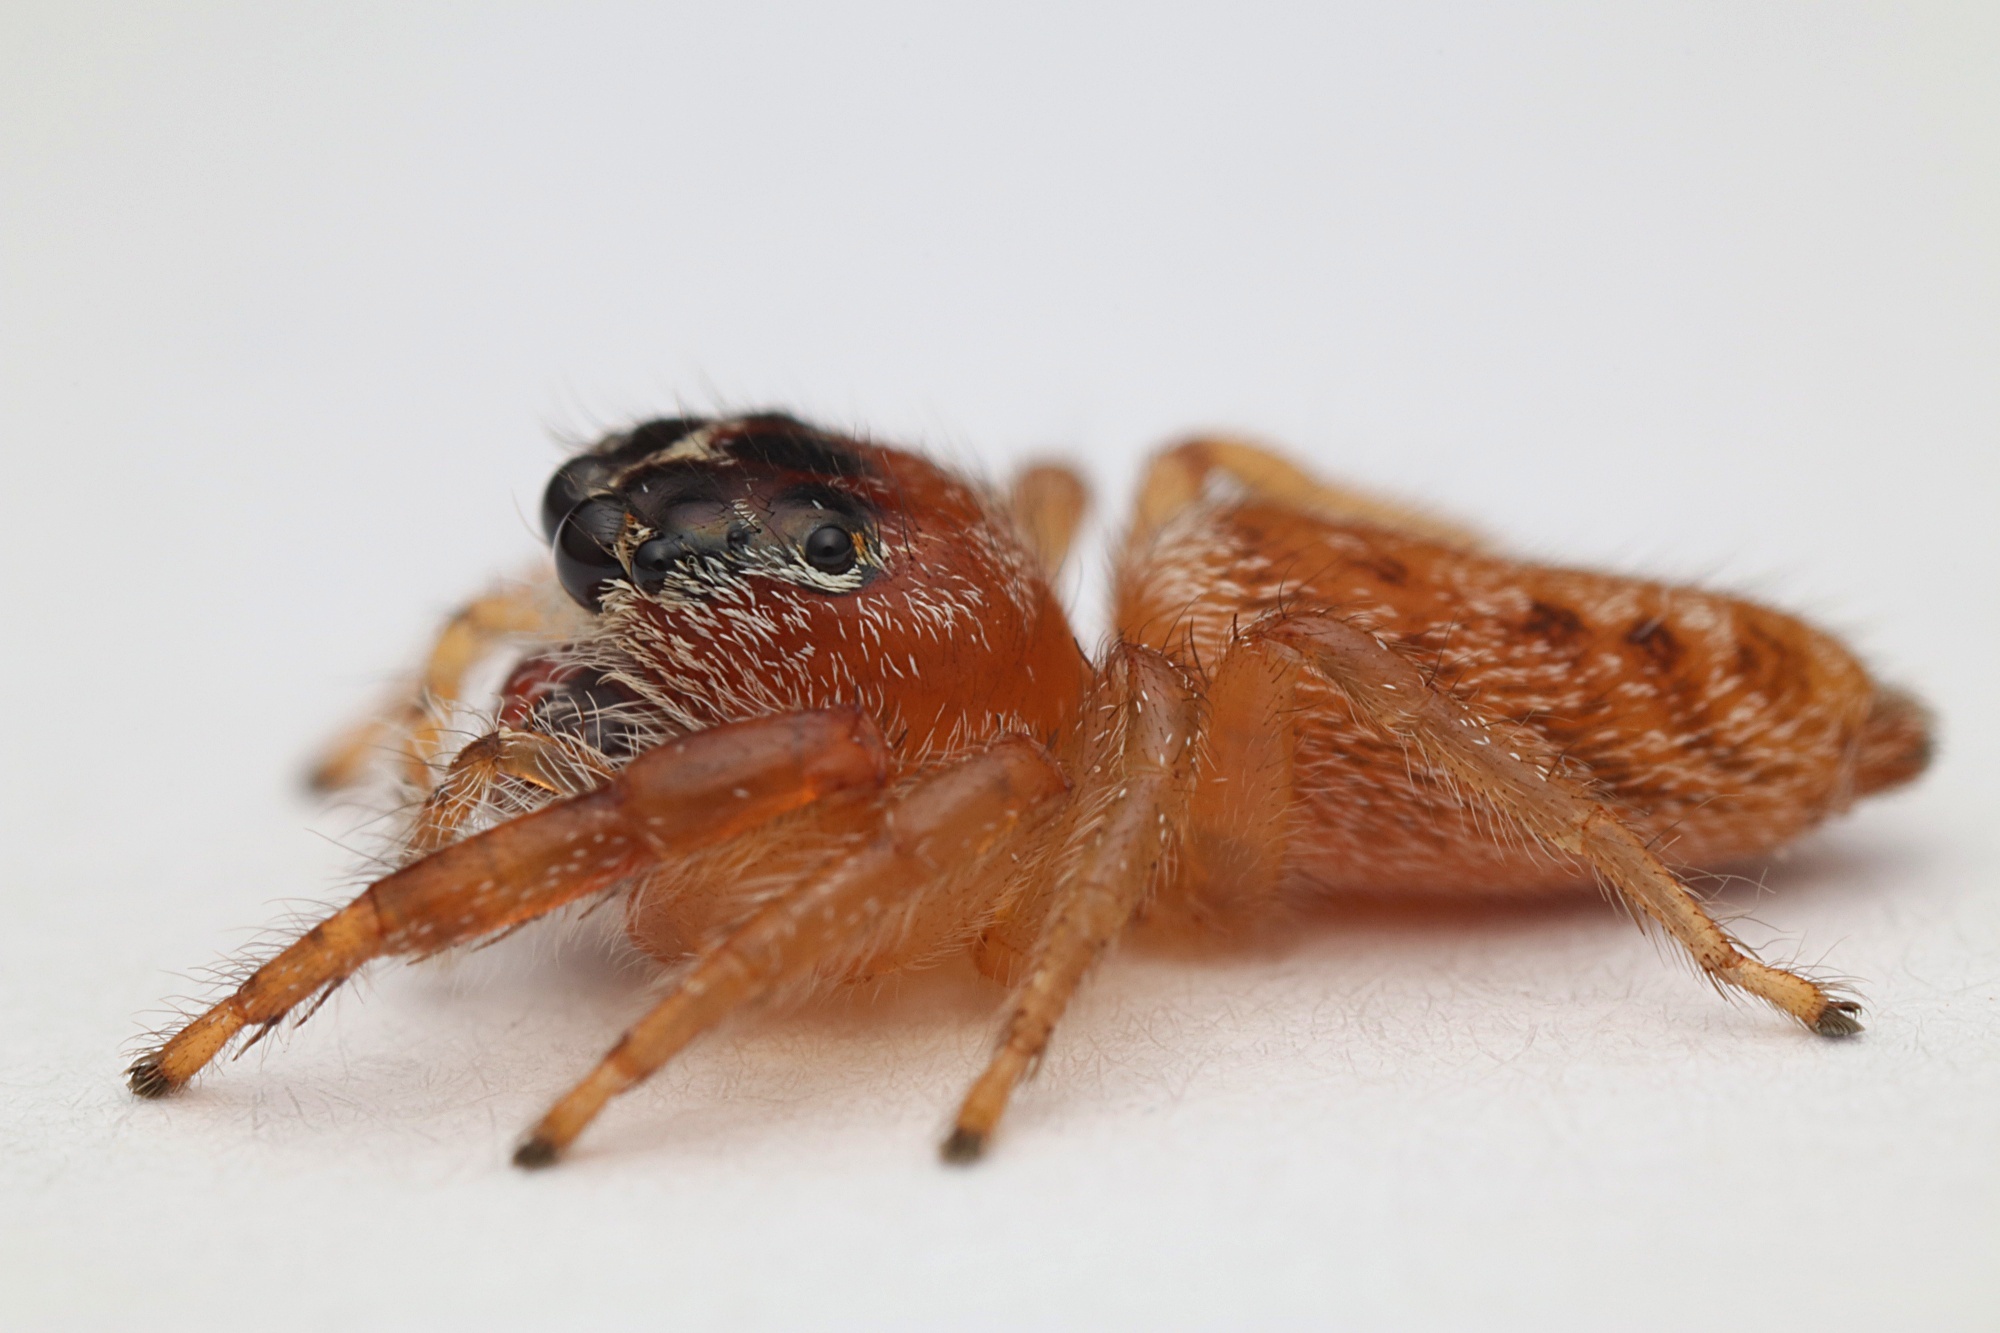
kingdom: Animalia
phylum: Arthropoda
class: Arachnida
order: Araneae
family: Salticidae
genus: Opisthoncus
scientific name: Opisthoncus polyphemus
